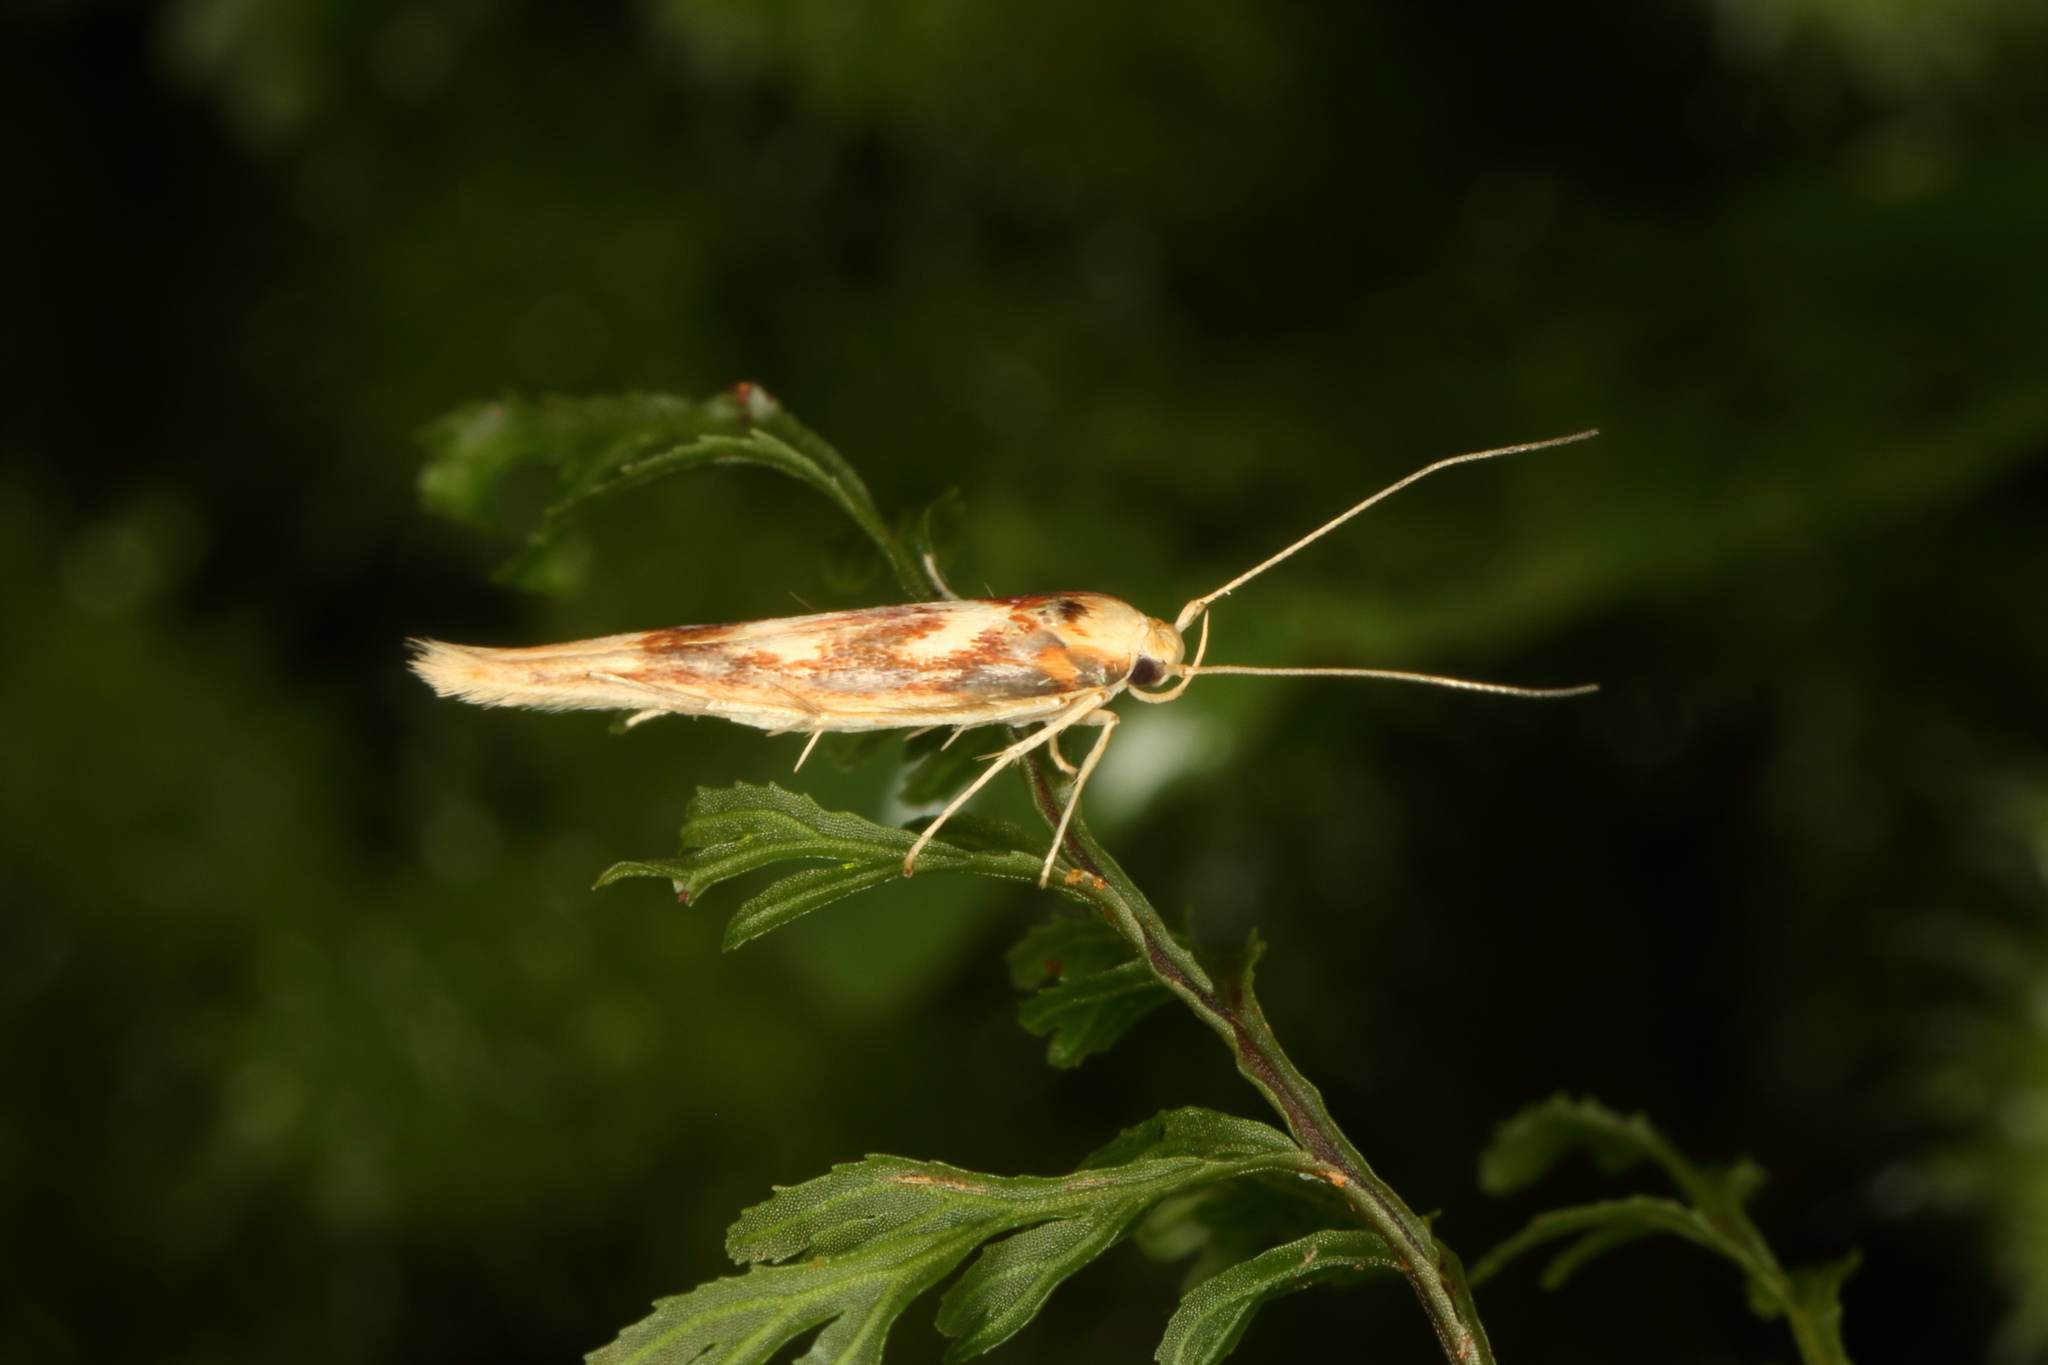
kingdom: Animalia
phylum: Arthropoda
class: Insecta
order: Lepidoptera
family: Stathmopodidae
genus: Stathmopoda
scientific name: Stathmopoda caminora
